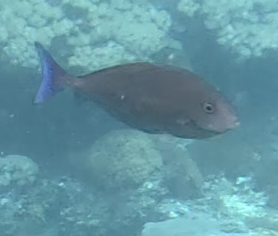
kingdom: Animalia
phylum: Chordata
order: Perciformes
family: Acanthuridae
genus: Naso
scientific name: Naso caeruleacauda
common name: Bluetail unicornfish
